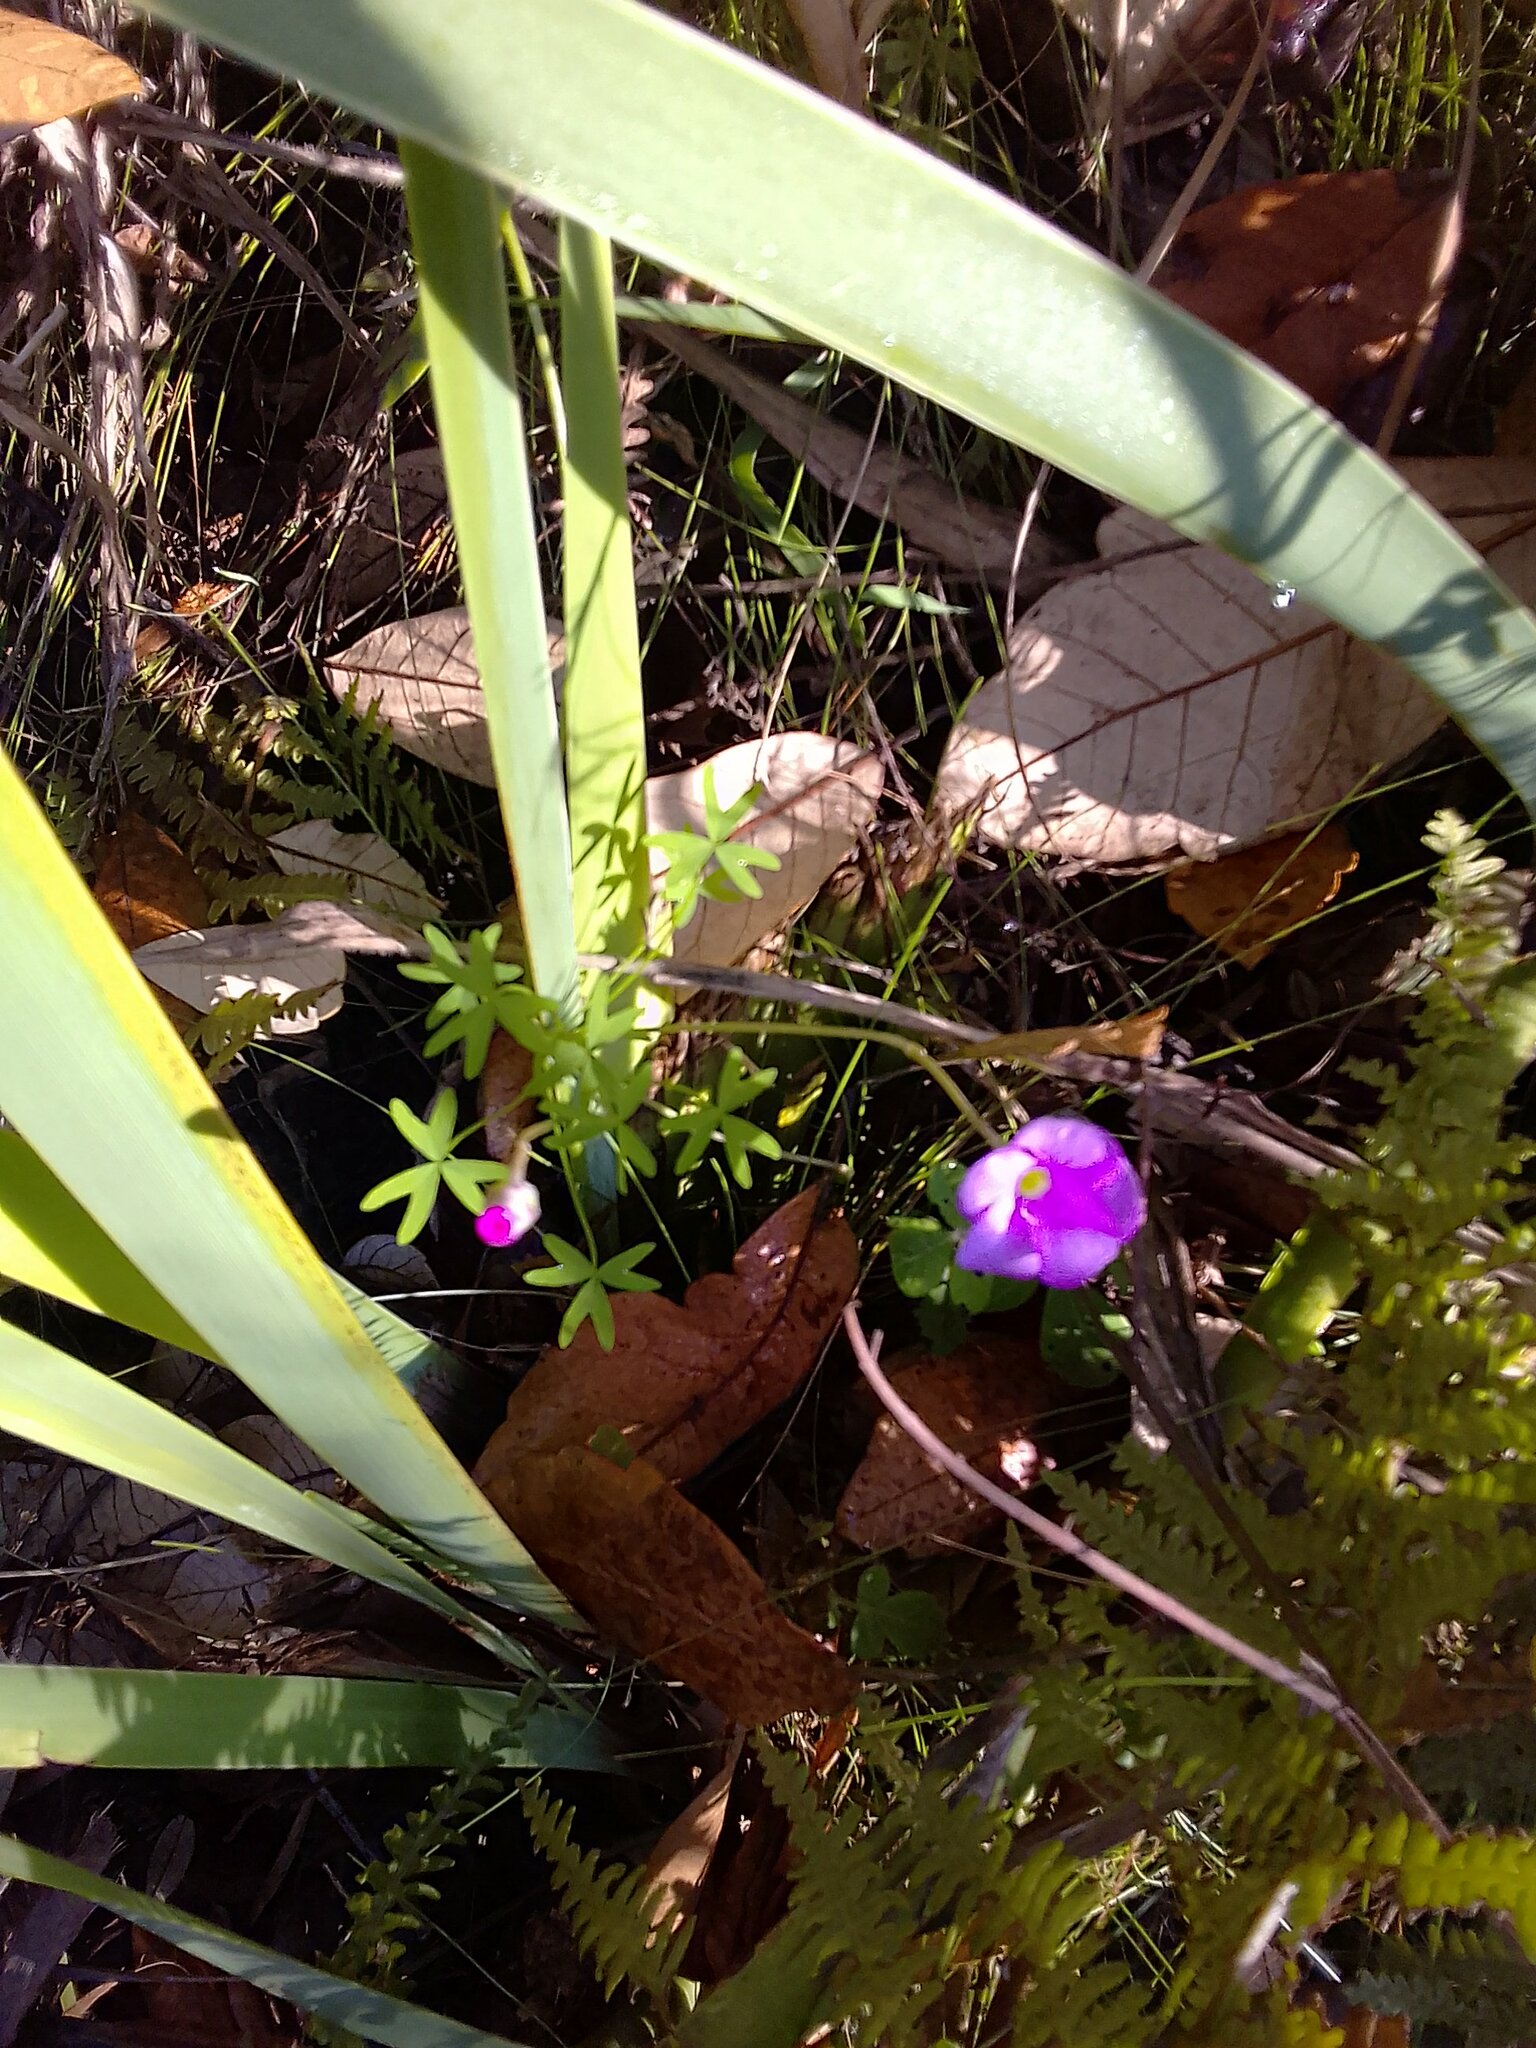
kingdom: Plantae
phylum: Tracheophyta
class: Magnoliopsida
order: Oxalidales
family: Oxalidaceae
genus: Oxalis
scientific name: Oxalis bifida
